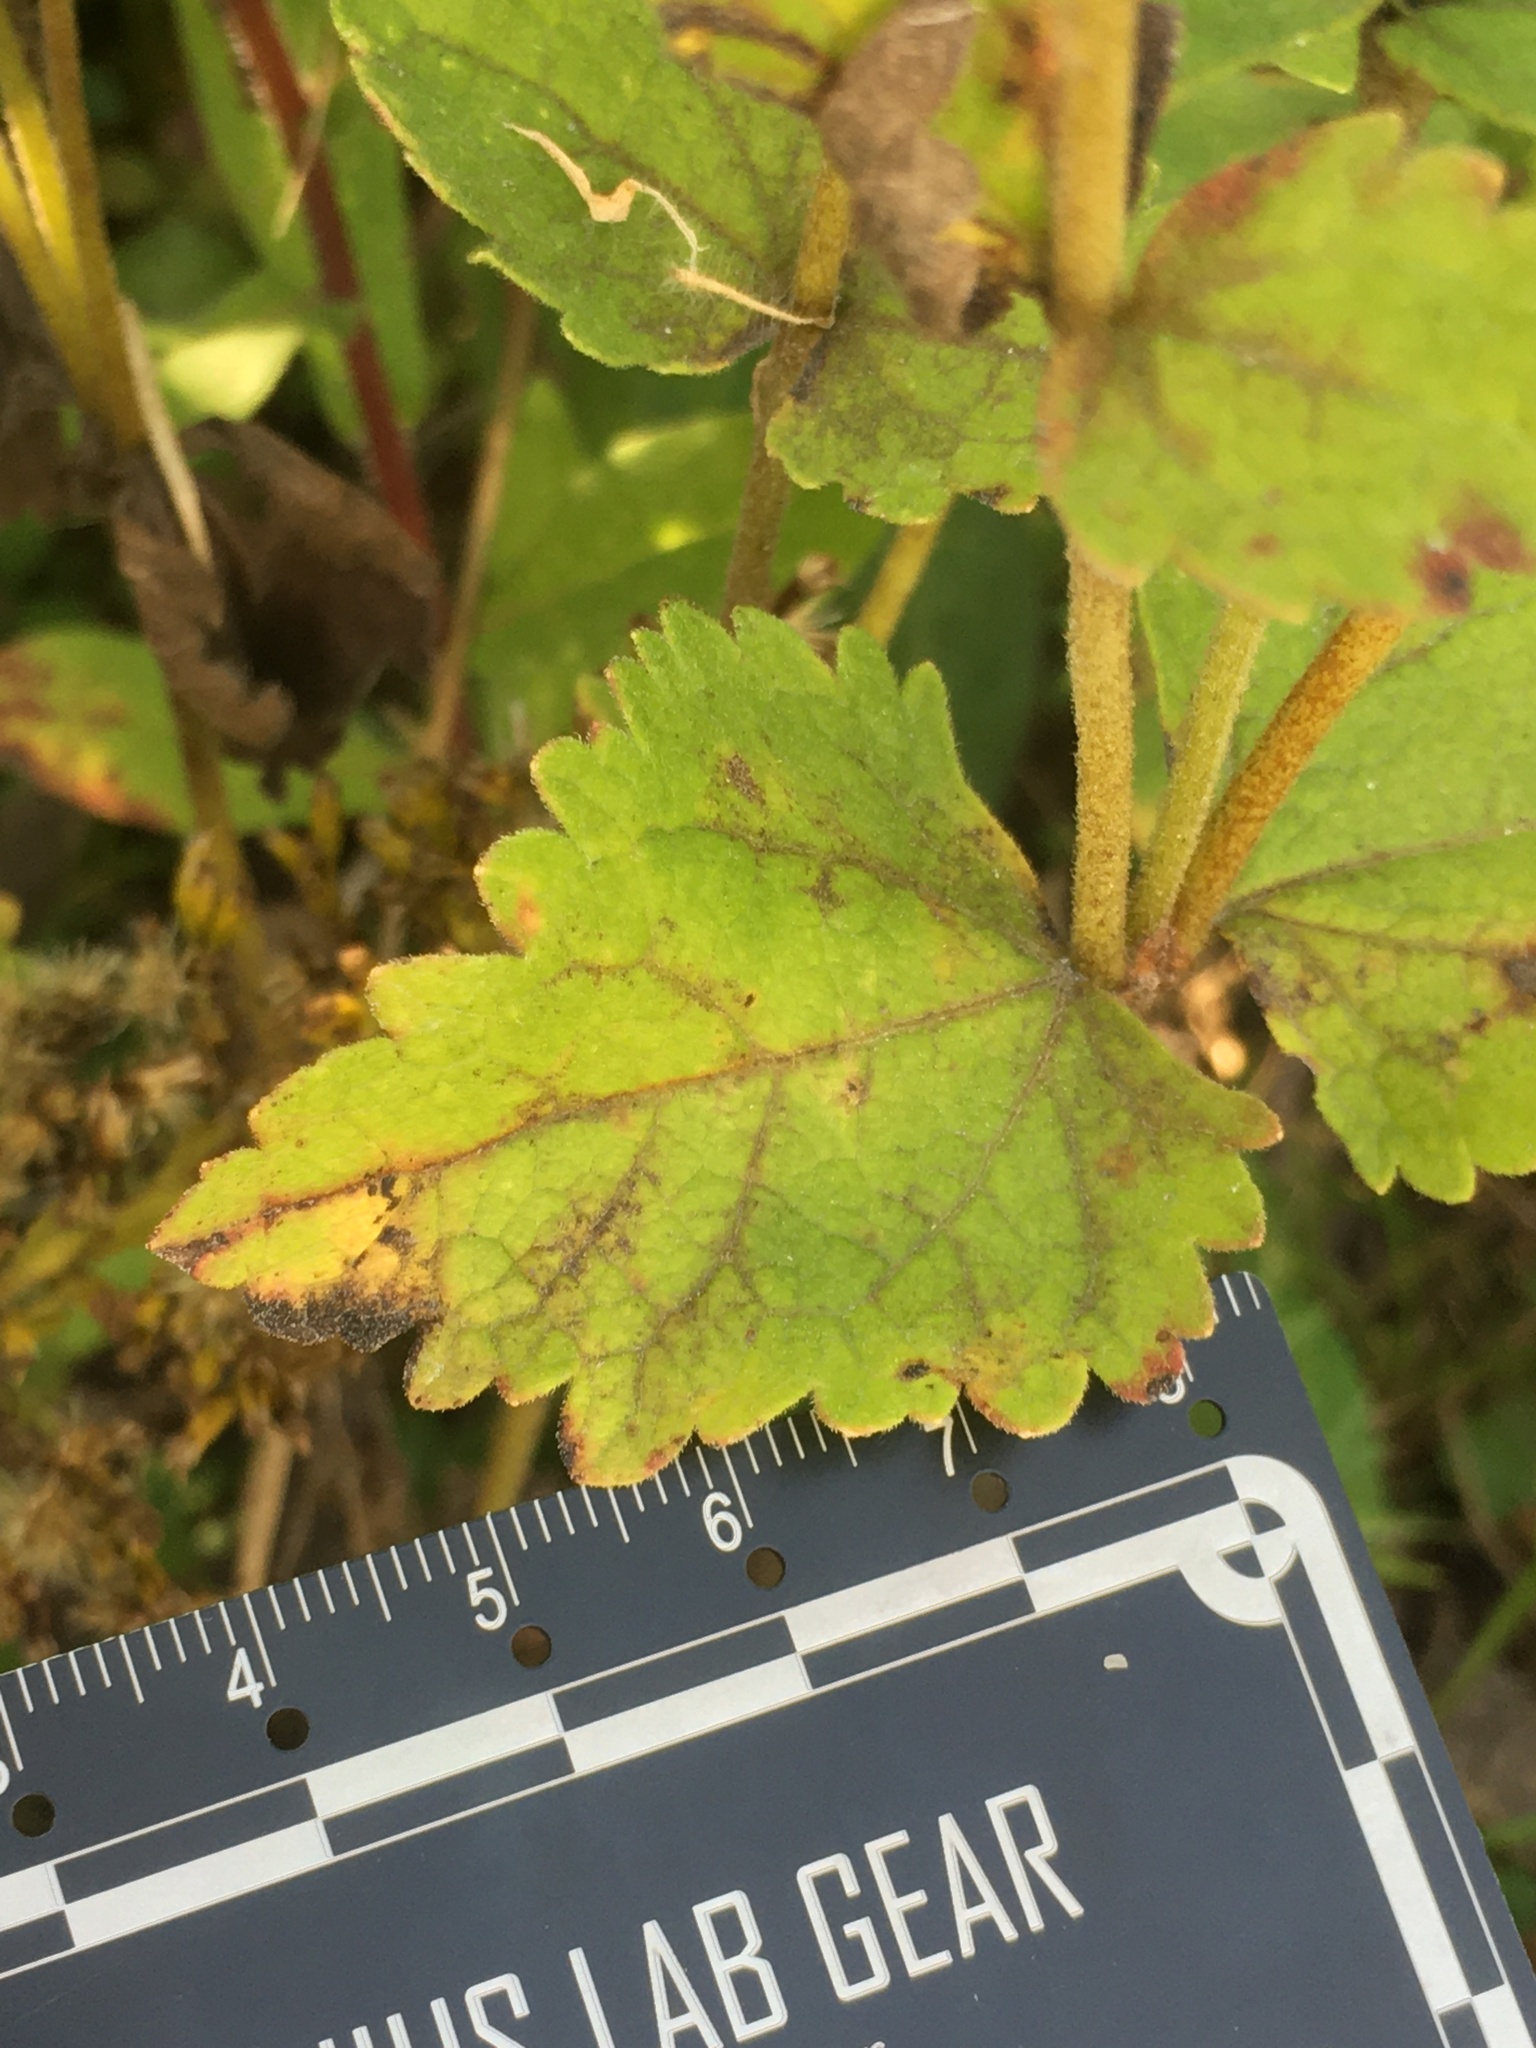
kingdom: Plantae
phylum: Tracheophyta
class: Magnoliopsida
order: Asterales
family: Asteraceae
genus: Eupatorium
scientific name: Eupatorium rotundifolium
